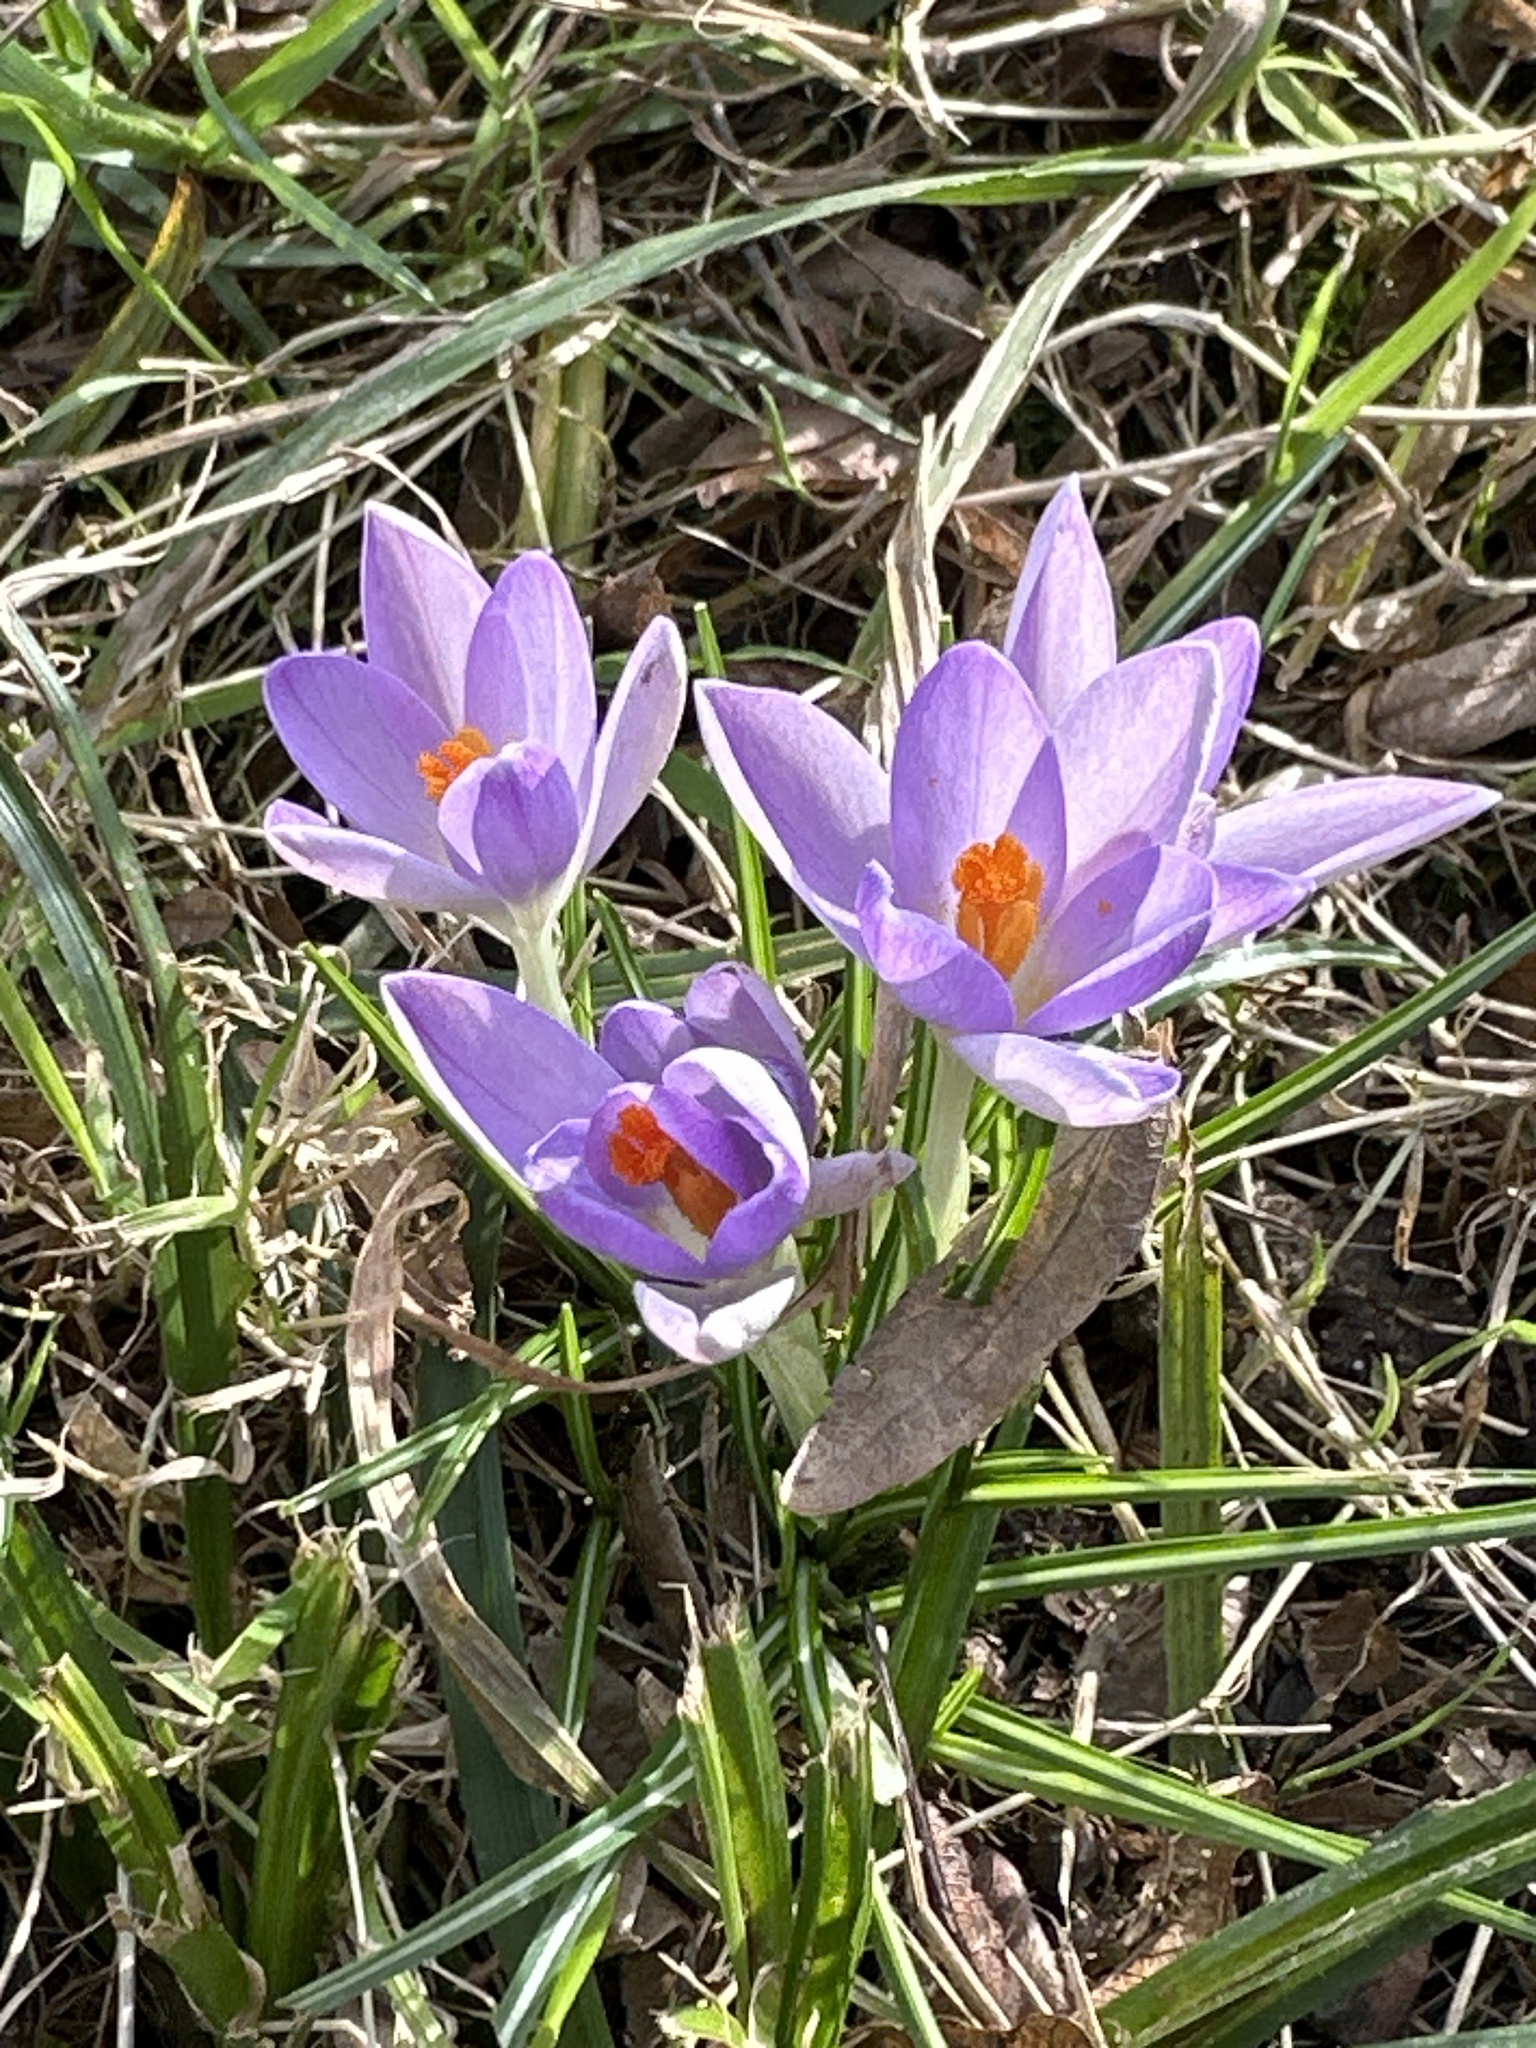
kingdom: Plantae
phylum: Tracheophyta
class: Liliopsida
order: Asparagales
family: Iridaceae
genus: Crocus
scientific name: Crocus tommasinianus
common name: Early crocus
